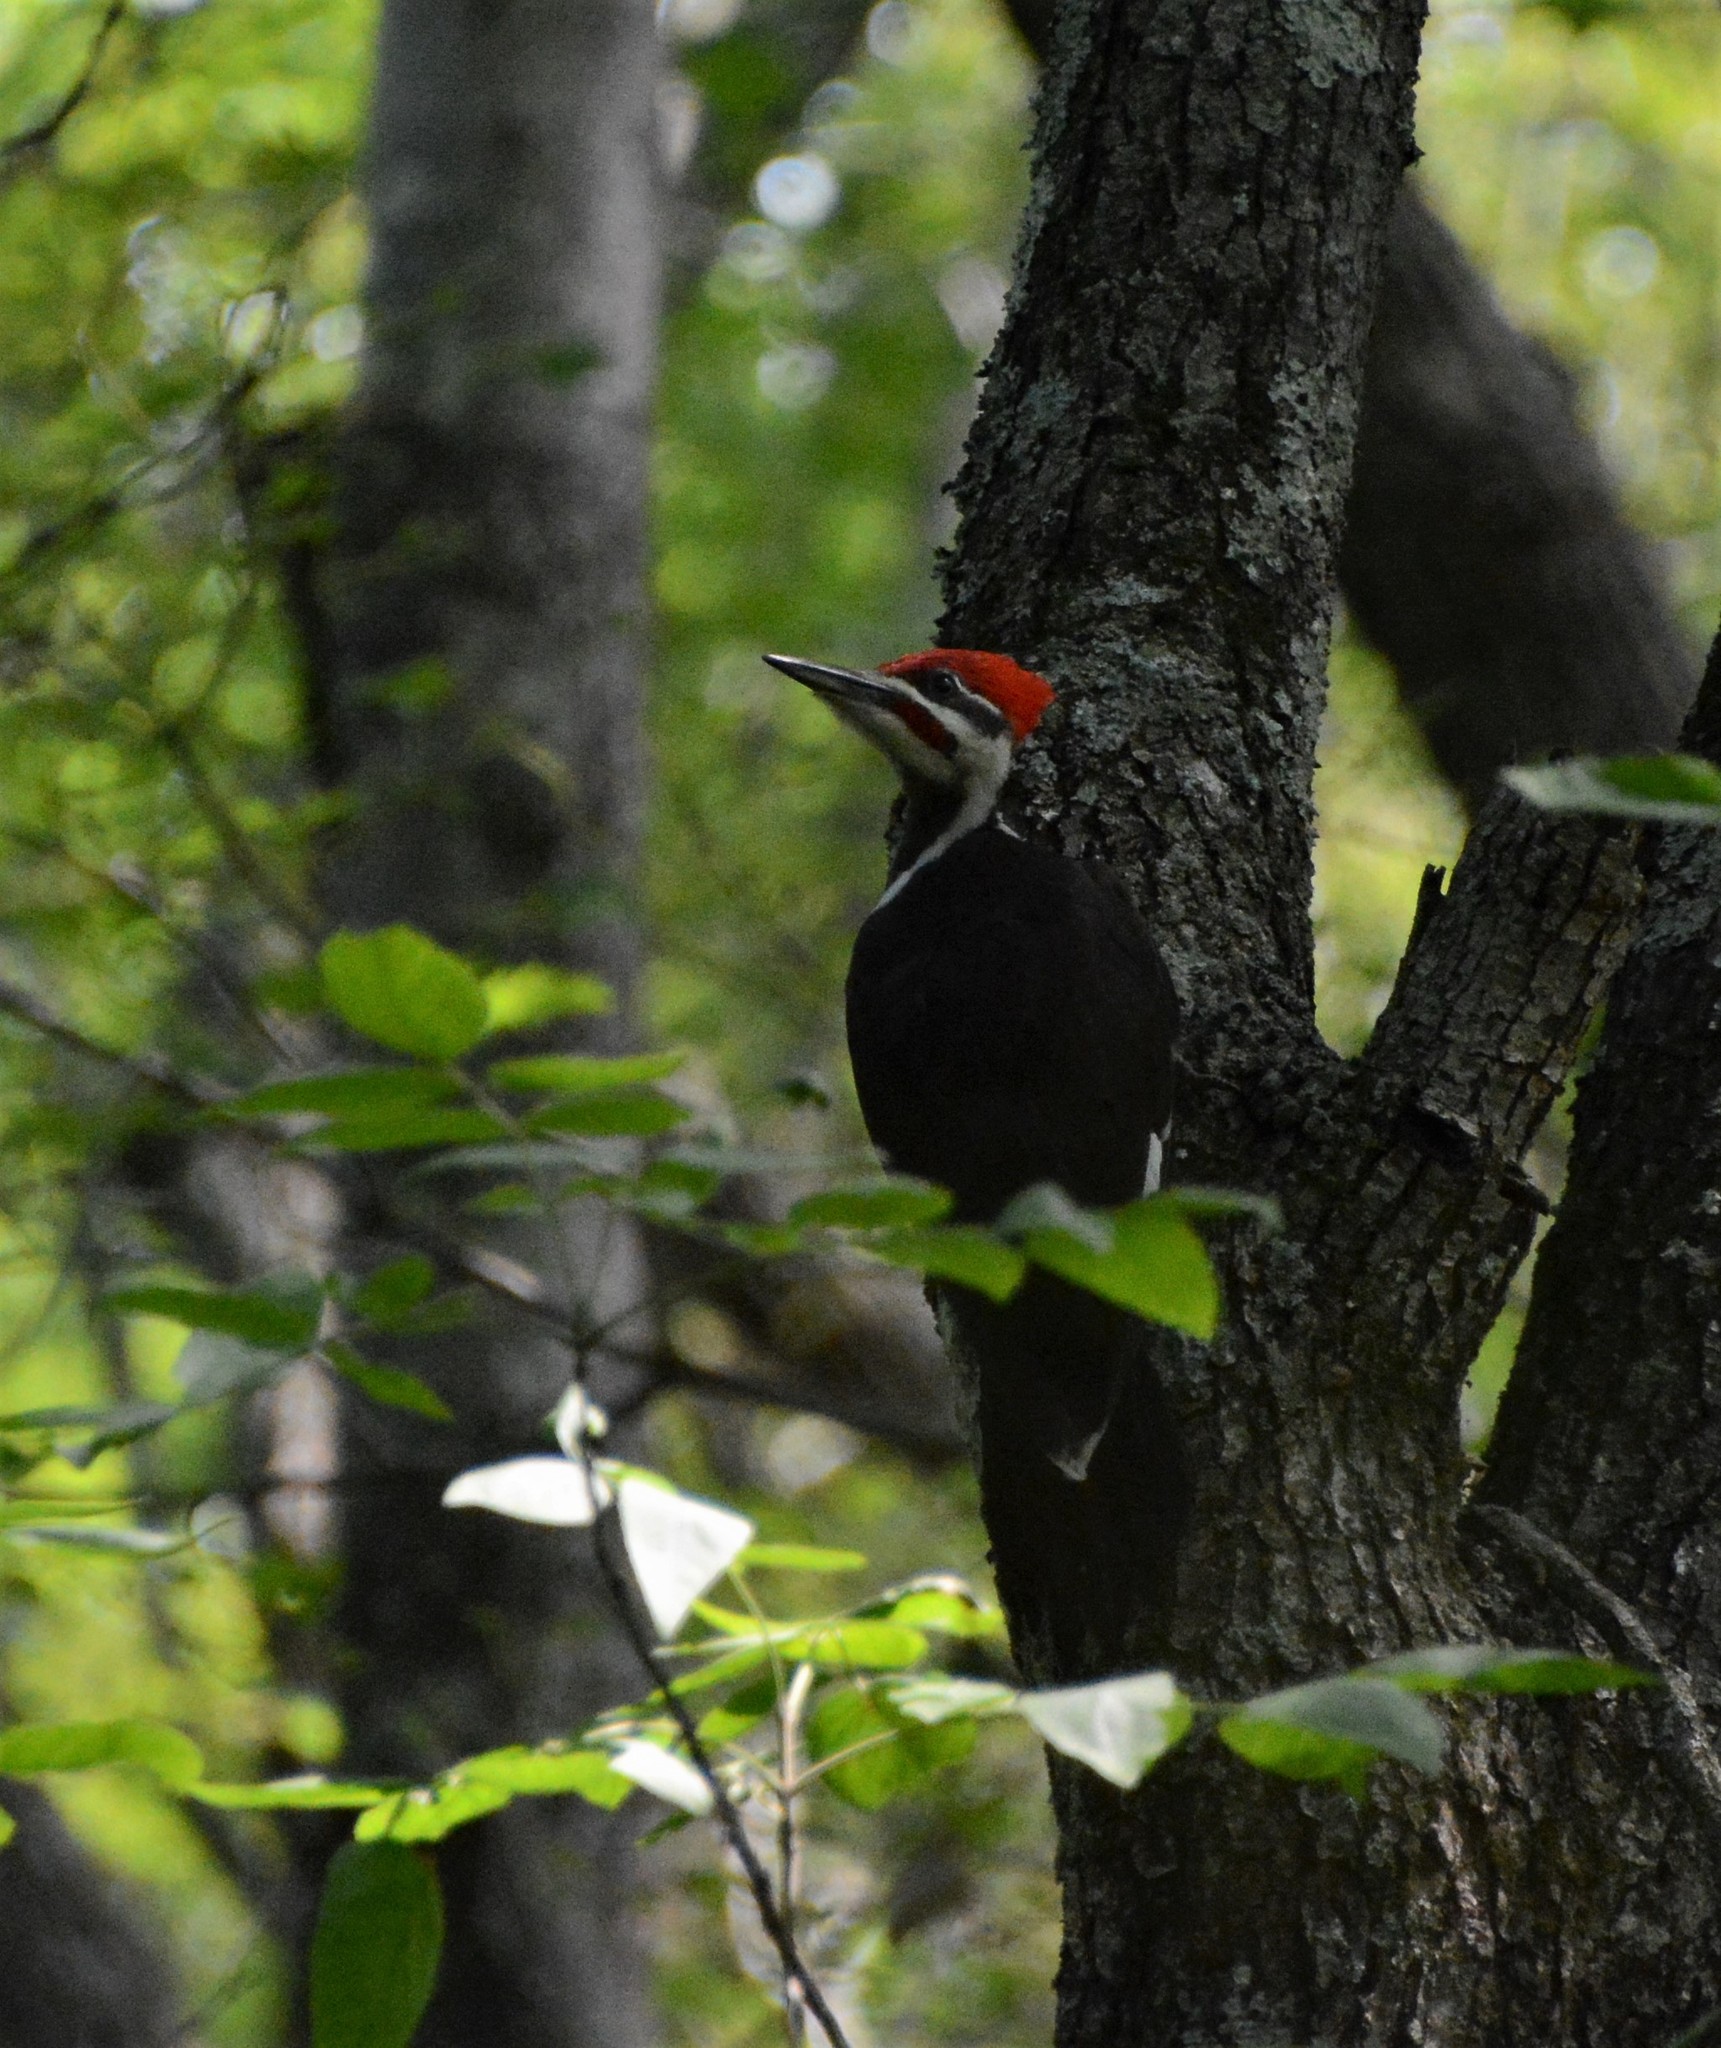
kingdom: Animalia
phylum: Chordata
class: Aves
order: Piciformes
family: Picidae
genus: Dryocopus
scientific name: Dryocopus pileatus
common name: Pileated woodpecker
